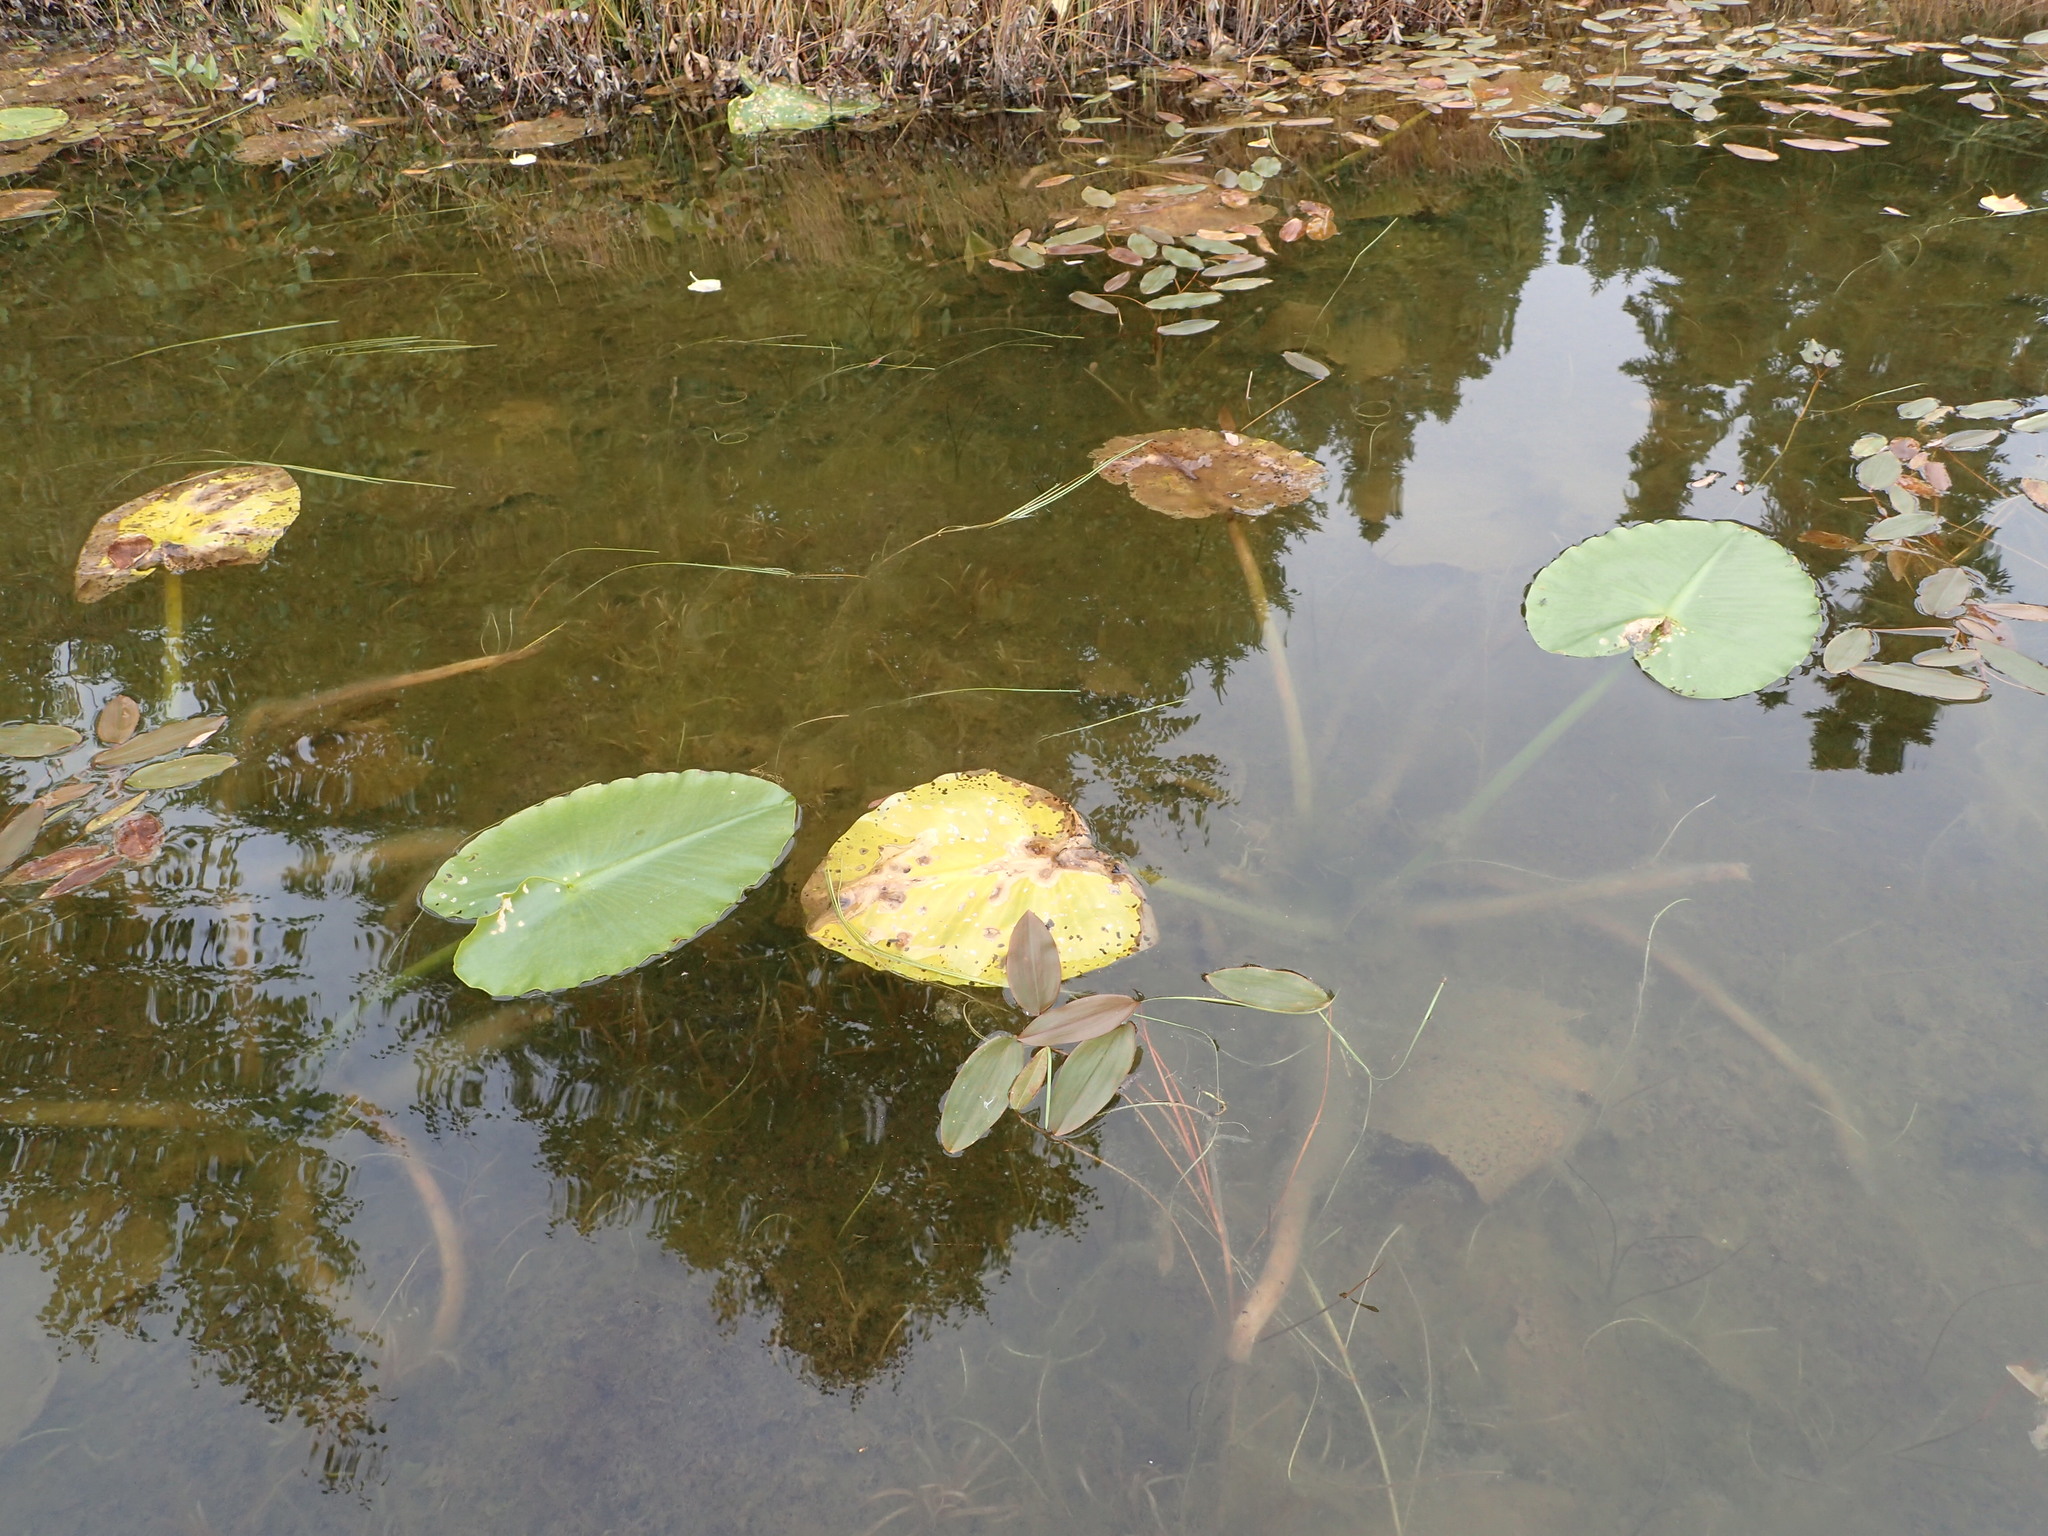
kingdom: Plantae
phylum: Tracheophyta
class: Magnoliopsida
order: Nymphaeales
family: Nymphaeaceae
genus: Nuphar
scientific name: Nuphar polysepala
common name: Rocky mountain cow-lily
